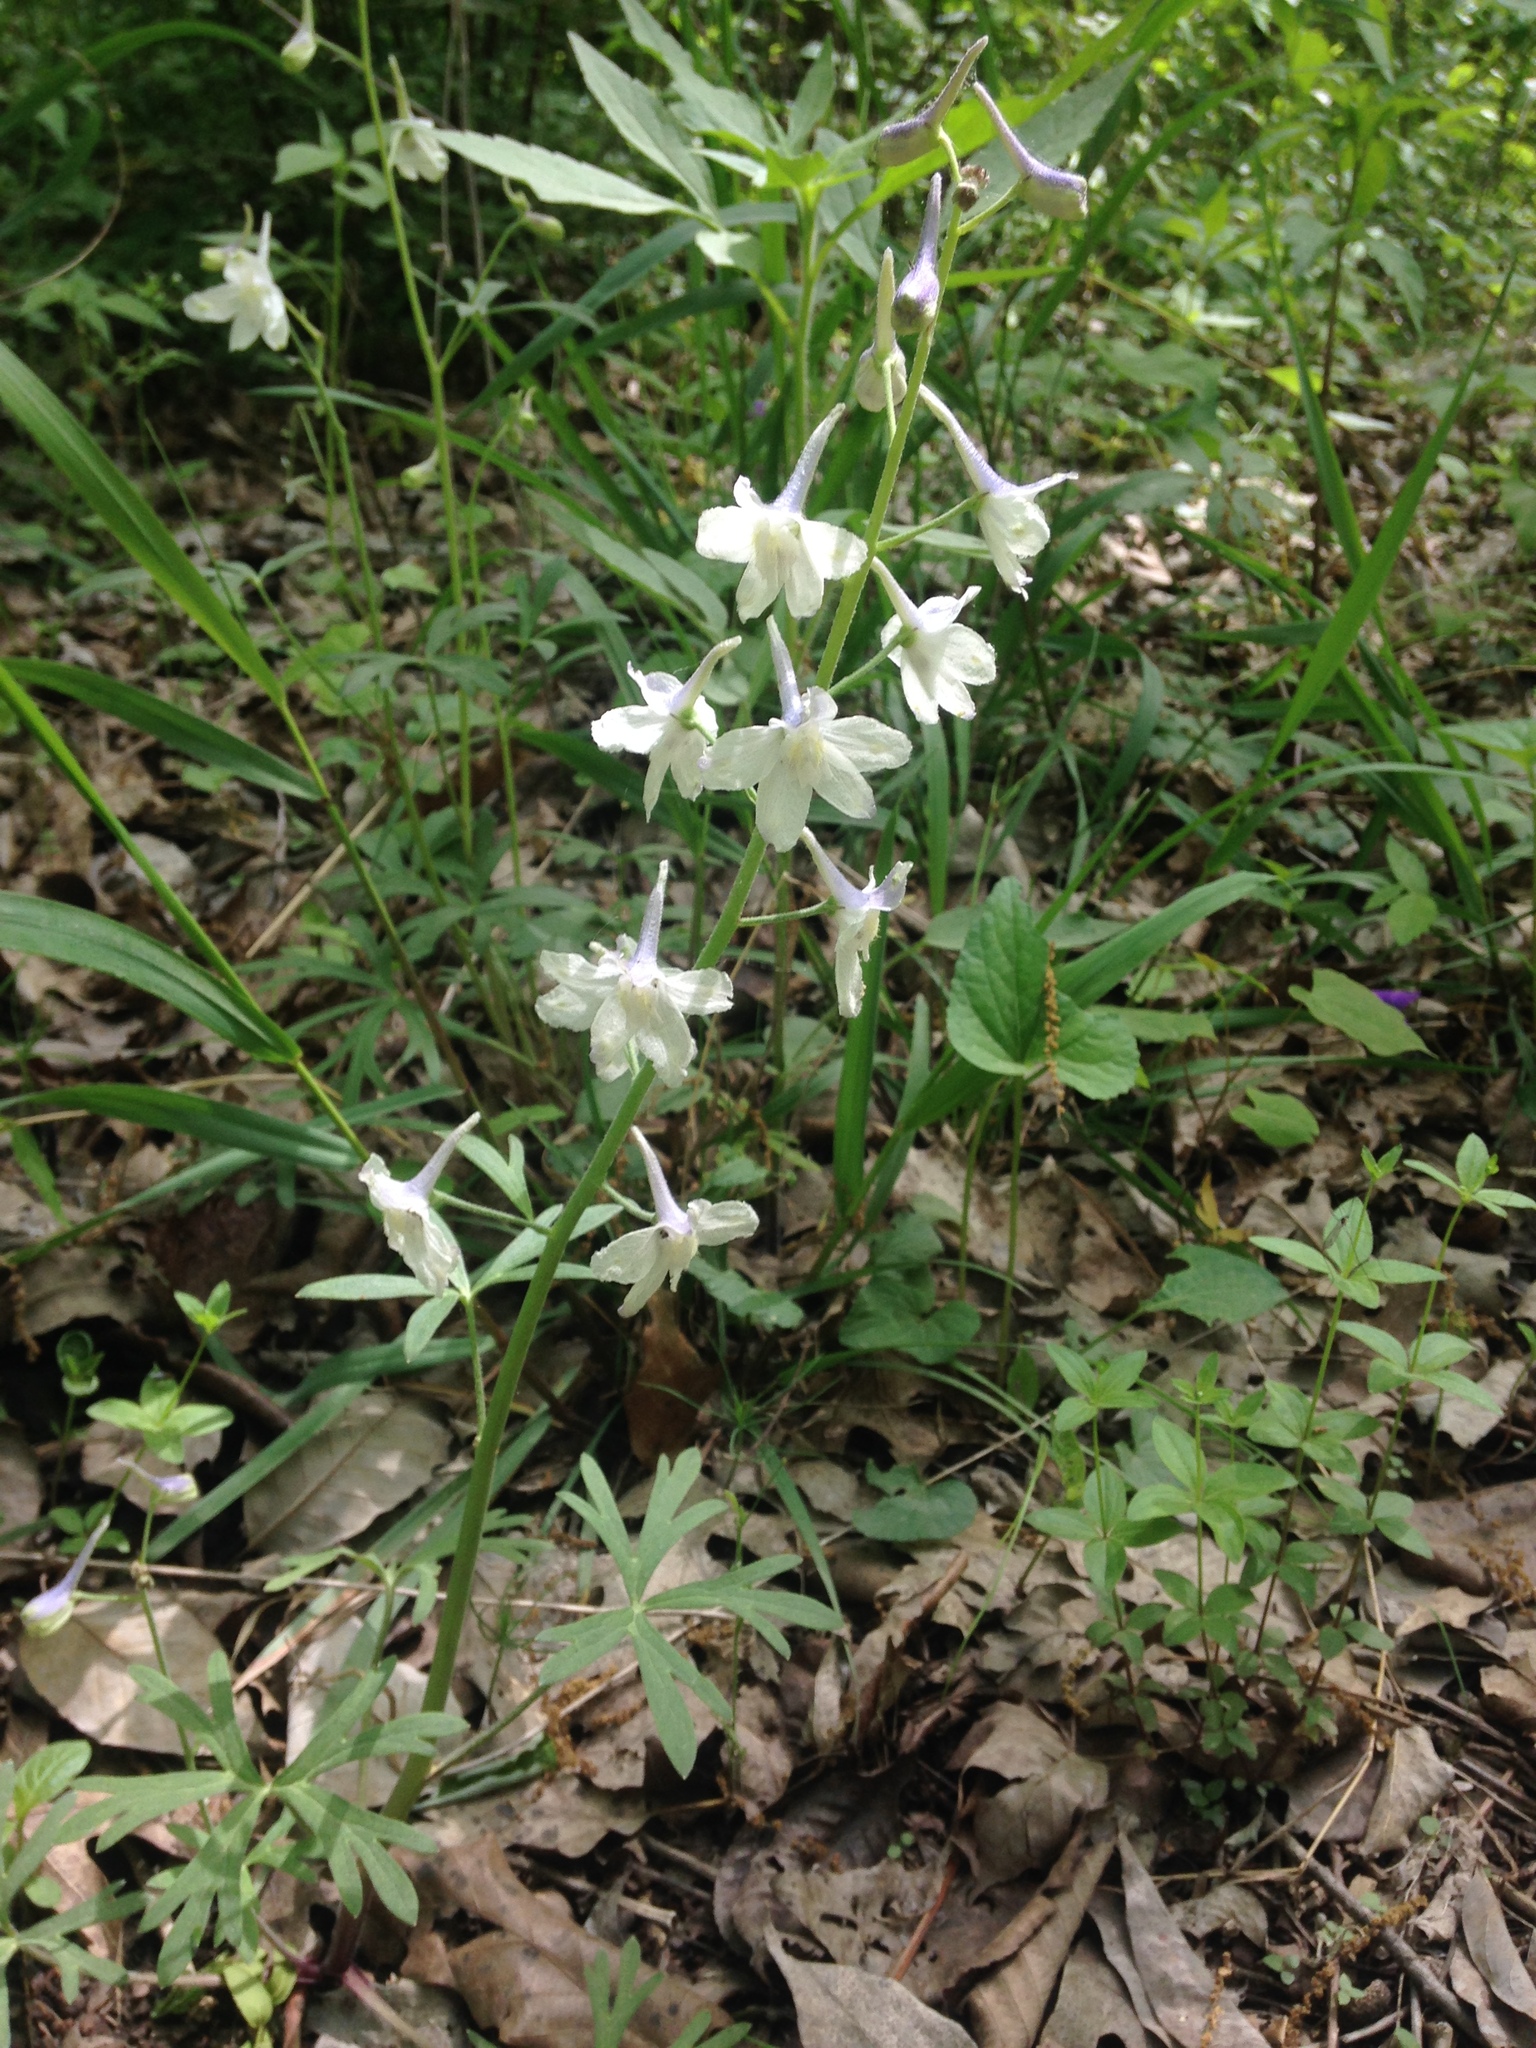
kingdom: Plantae
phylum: Tracheophyta
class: Magnoliopsida
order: Ranunculales
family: Ranunculaceae
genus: Delphinium
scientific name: Delphinium tricorne
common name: Dwarf larkspur
